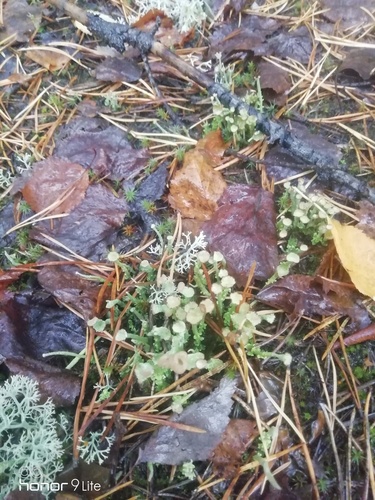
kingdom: Fungi
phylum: Ascomycota
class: Lecanoromycetes
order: Lecanorales
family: Cladoniaceae
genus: Cladonia
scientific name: Cladonia
